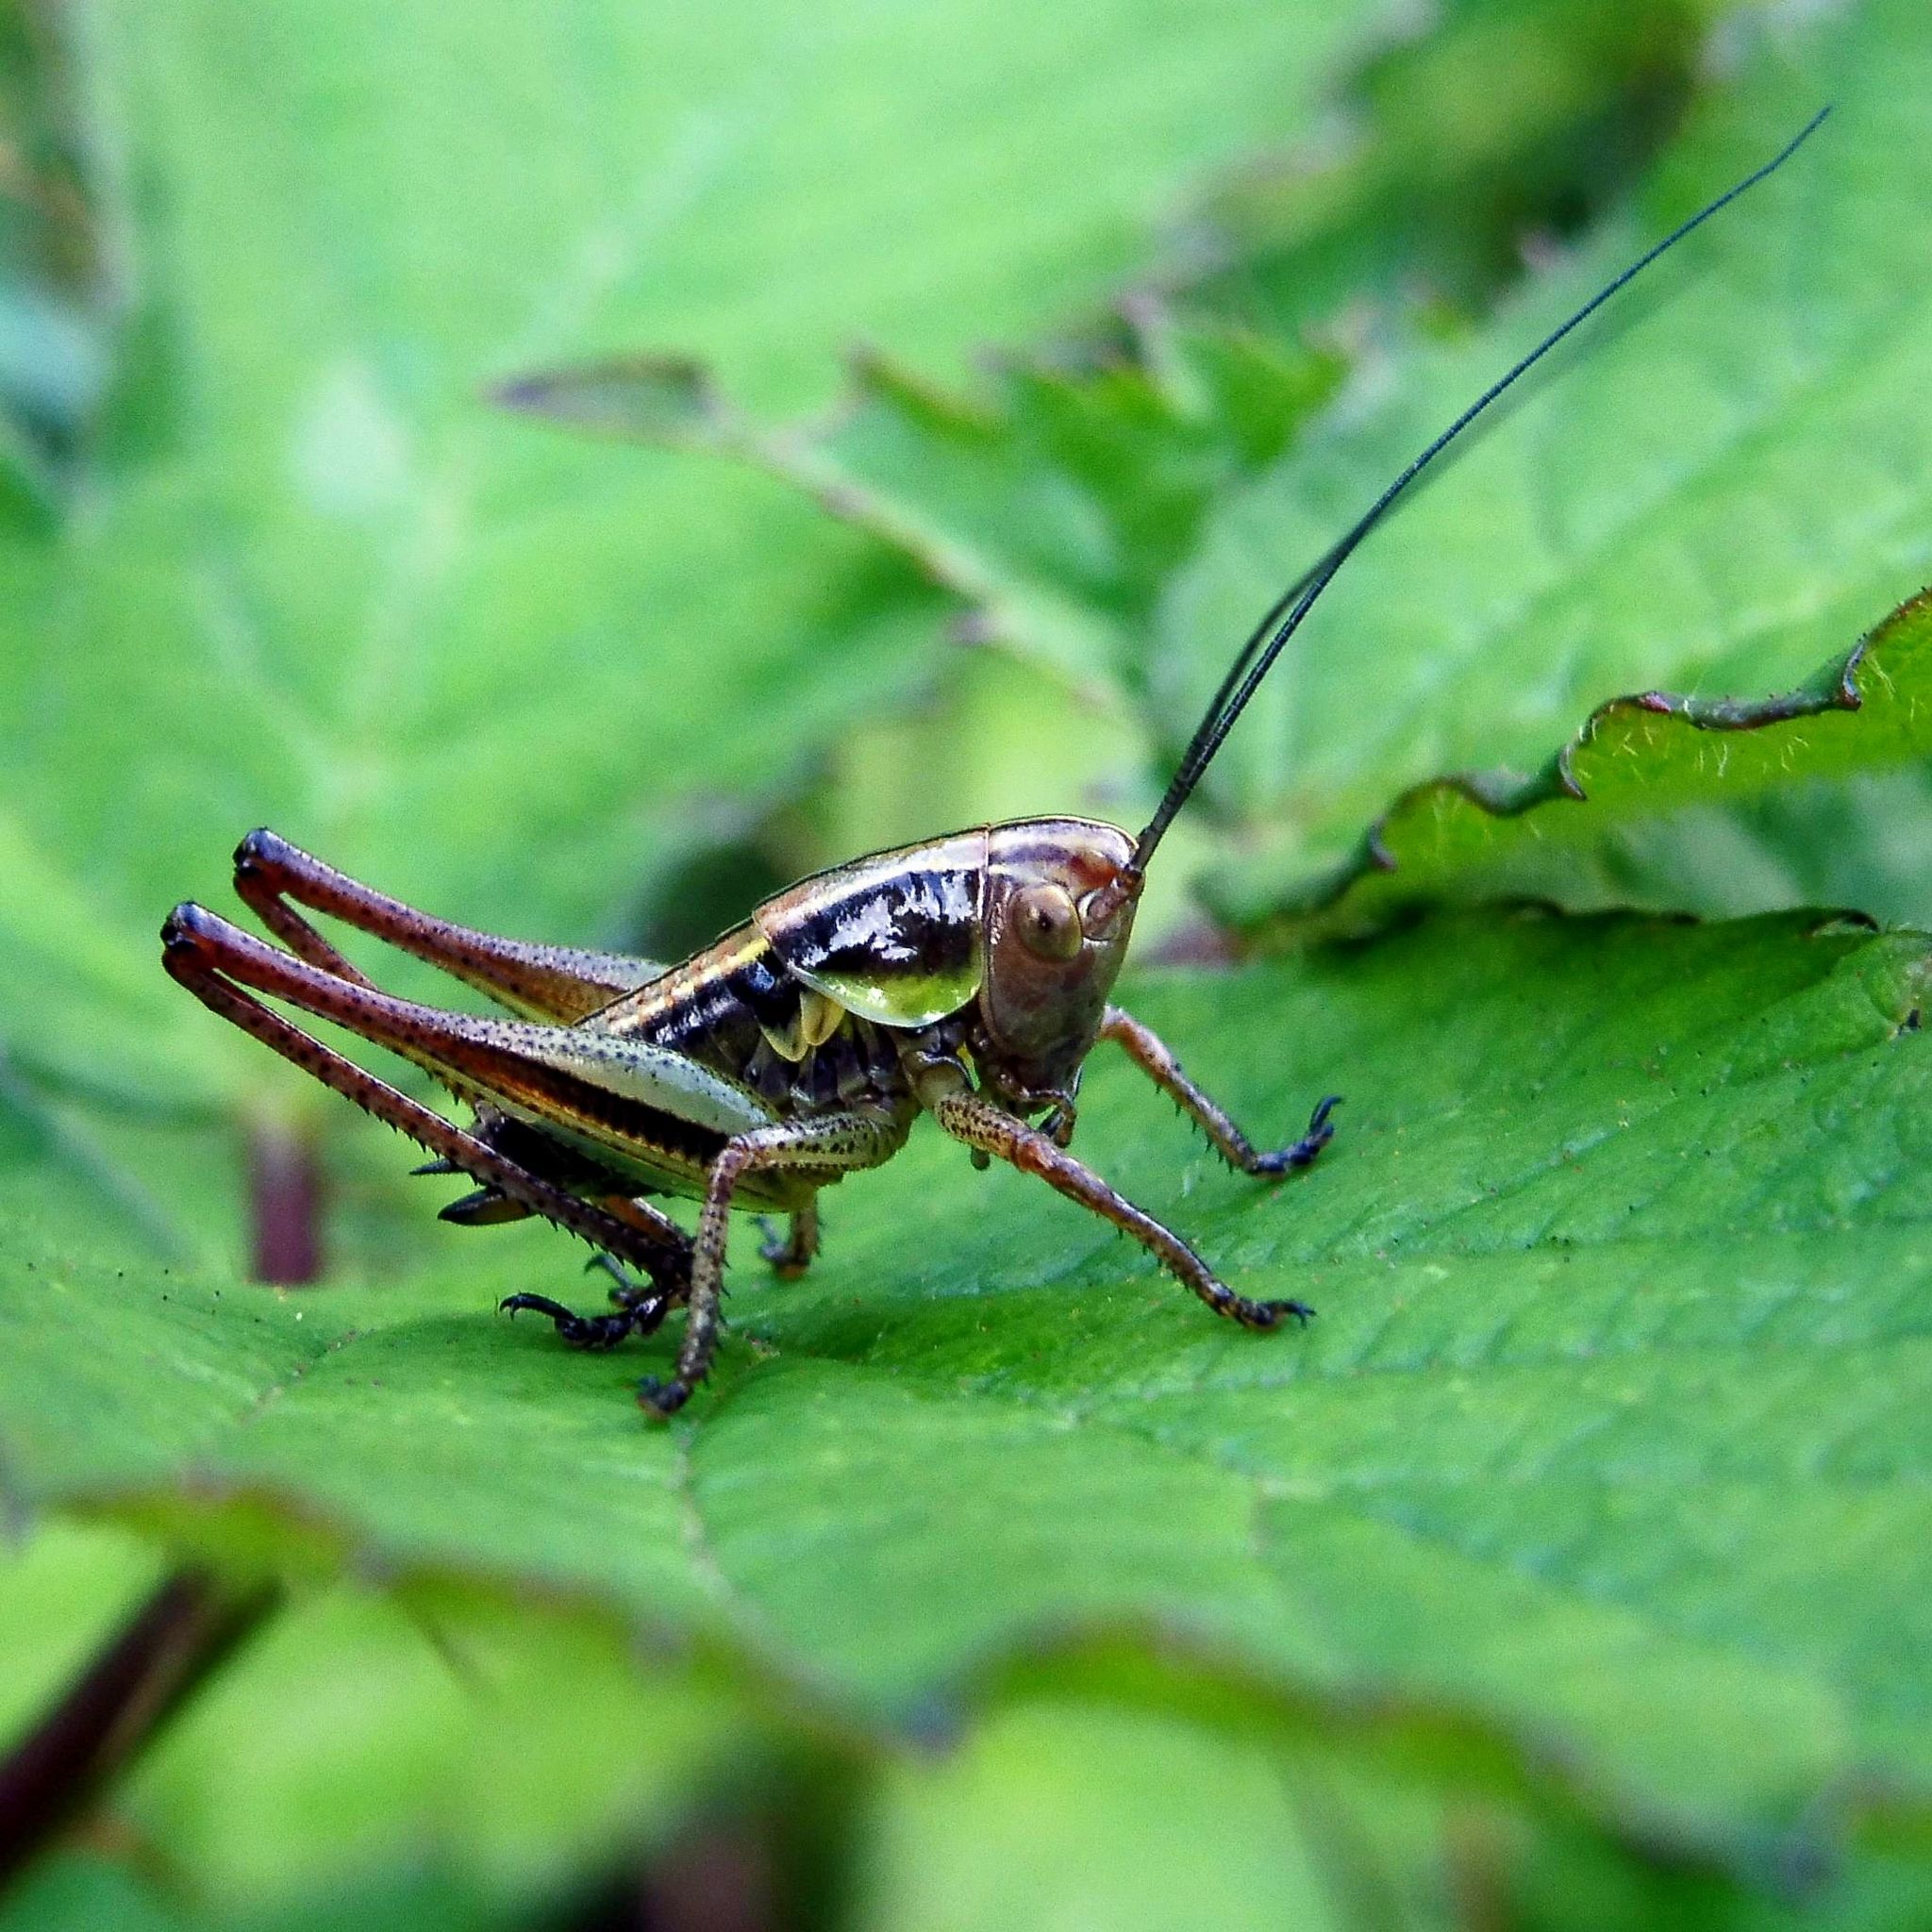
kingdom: Animalia
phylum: Arthropoda
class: Insecta
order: Orthoptera
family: Tettigoniidae
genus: Roeseliana
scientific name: Roeseliana roeselii
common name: Roesel's bush cricket
